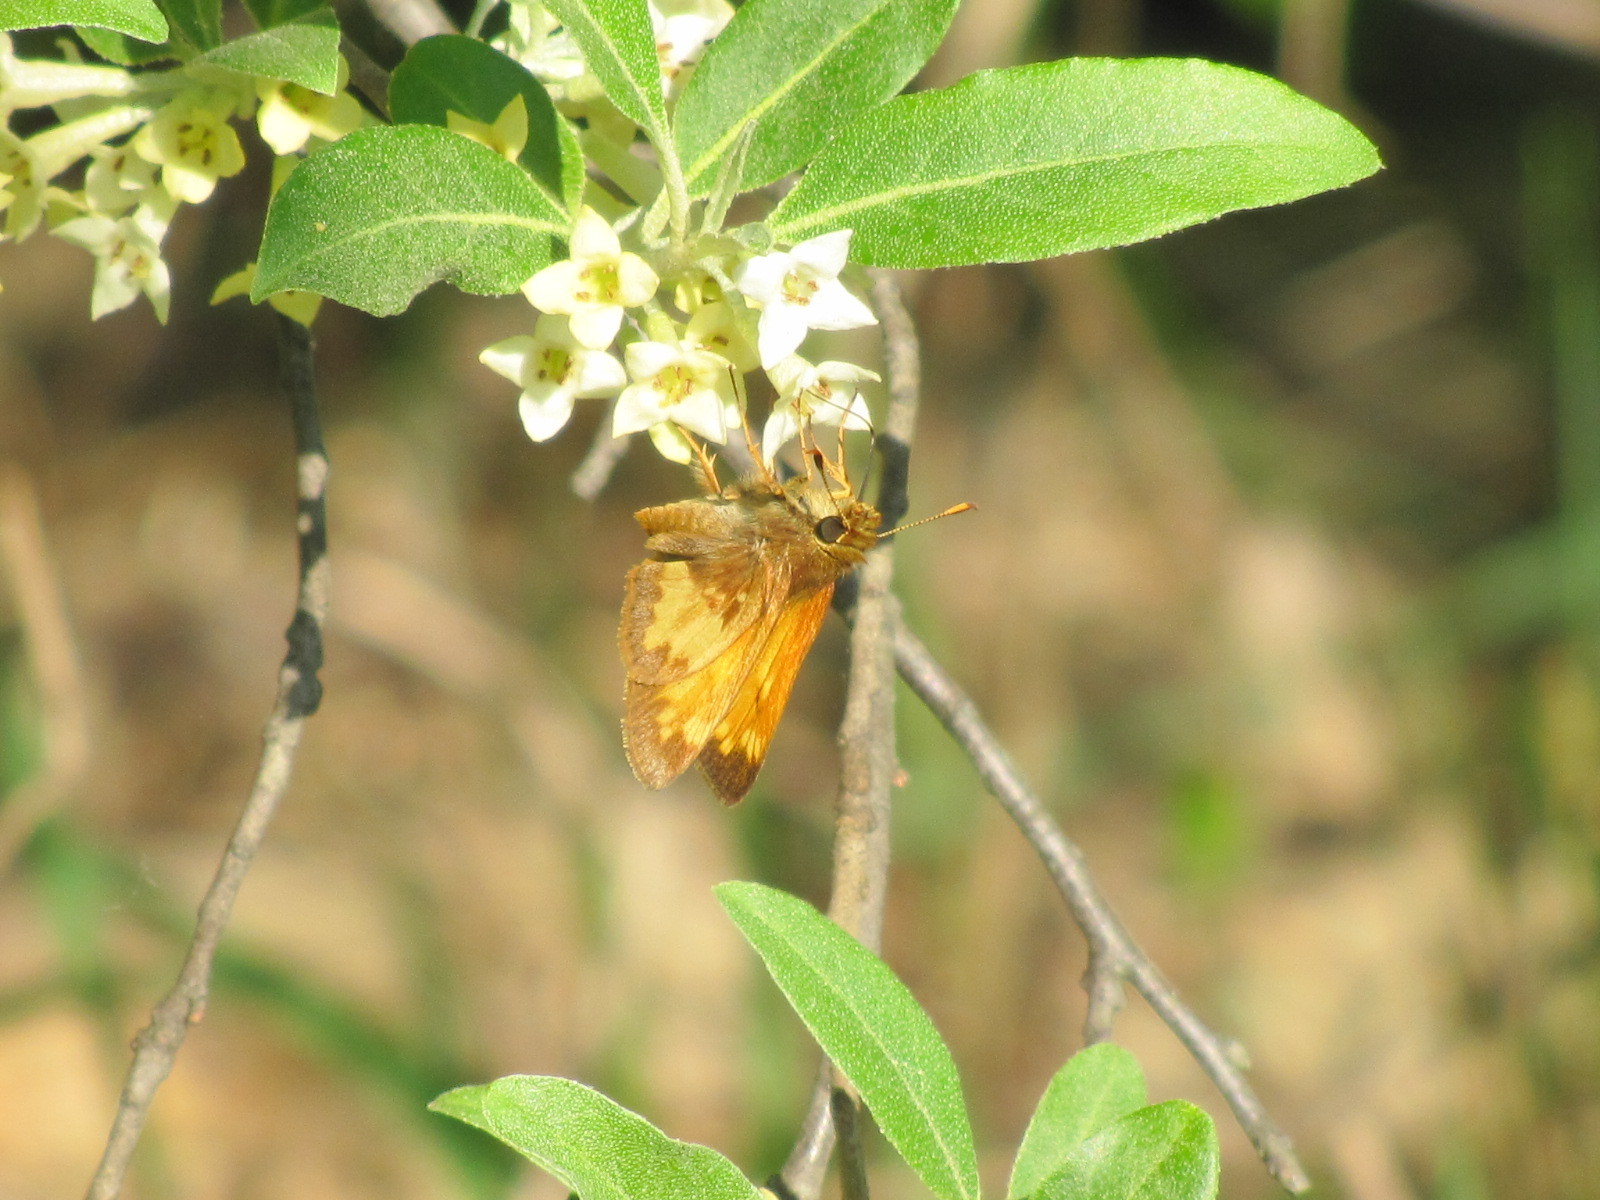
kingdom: Animalia
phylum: Arthropoda
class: Insecta
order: Lepidoptera
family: Hesperiidae
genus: Lon
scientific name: Lon hobomok
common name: Hobomok skipper
